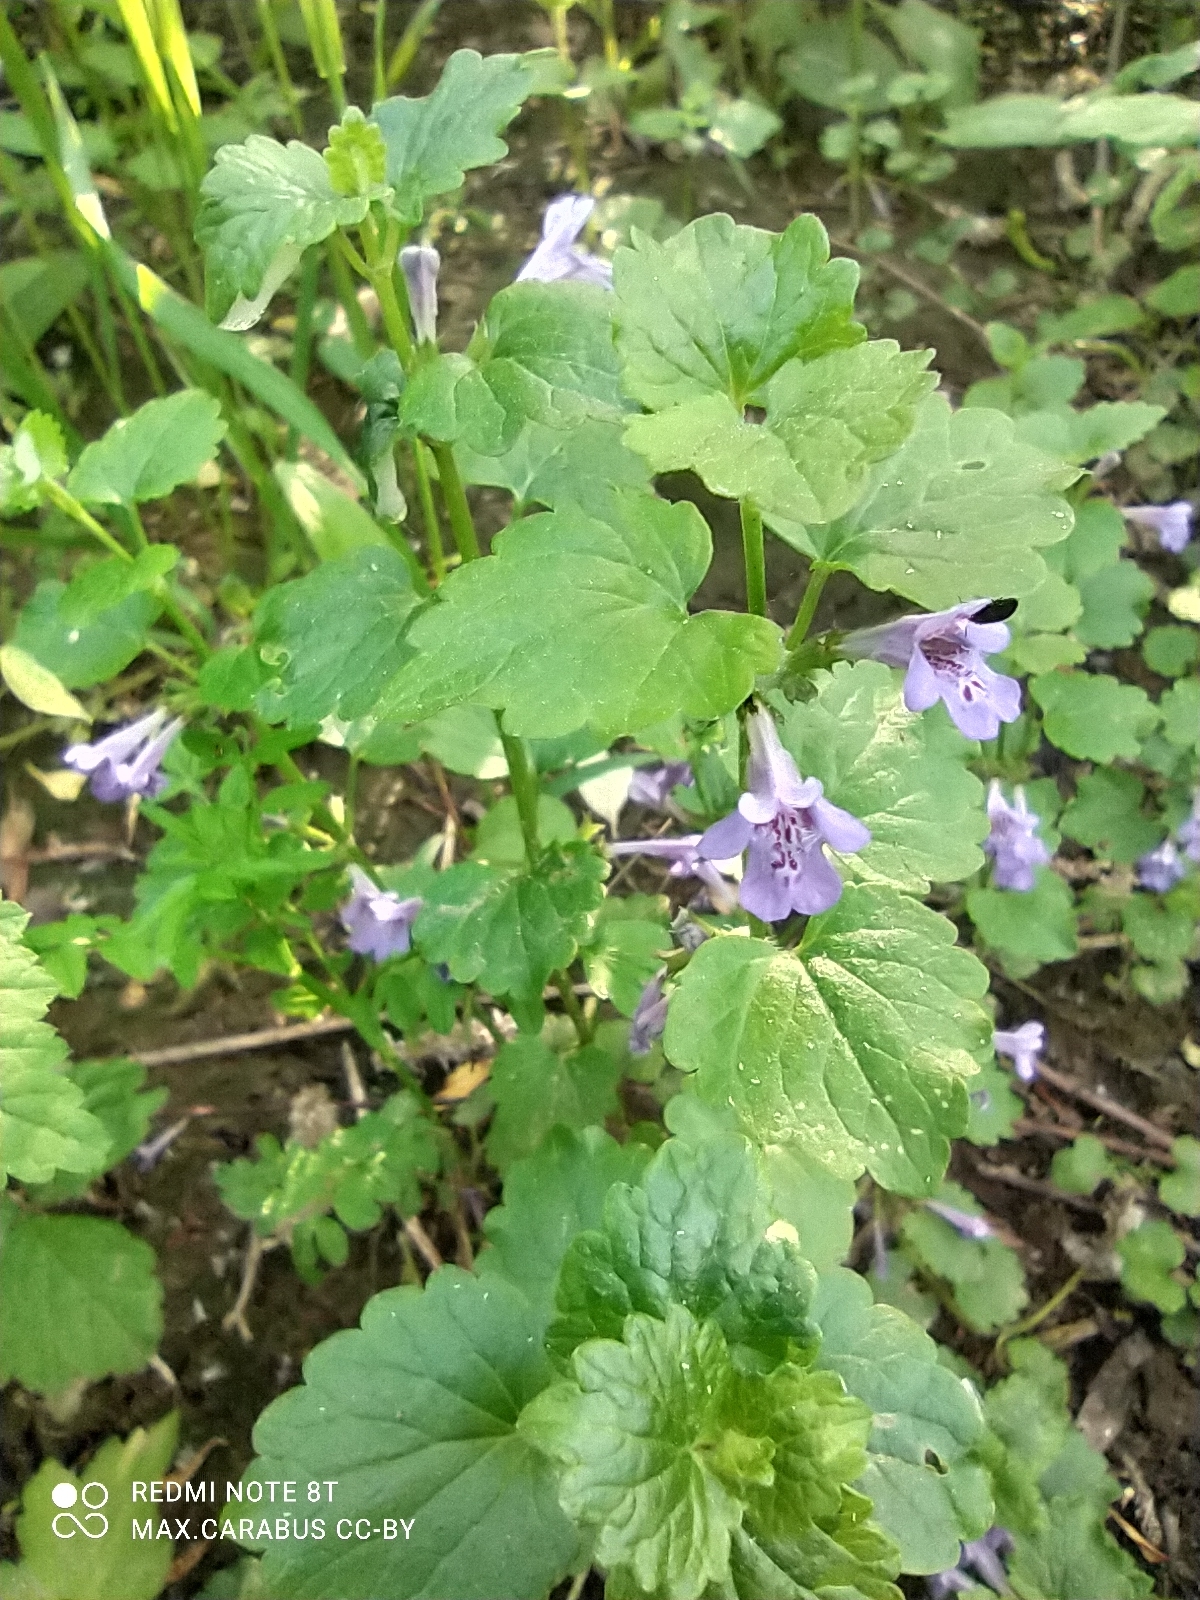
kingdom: Plantae
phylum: Tracheophyta
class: Magnoliopsida
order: Lamiales
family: Lamiaceae
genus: Glechoma
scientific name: Glechoma hederacea
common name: Ground ivy
